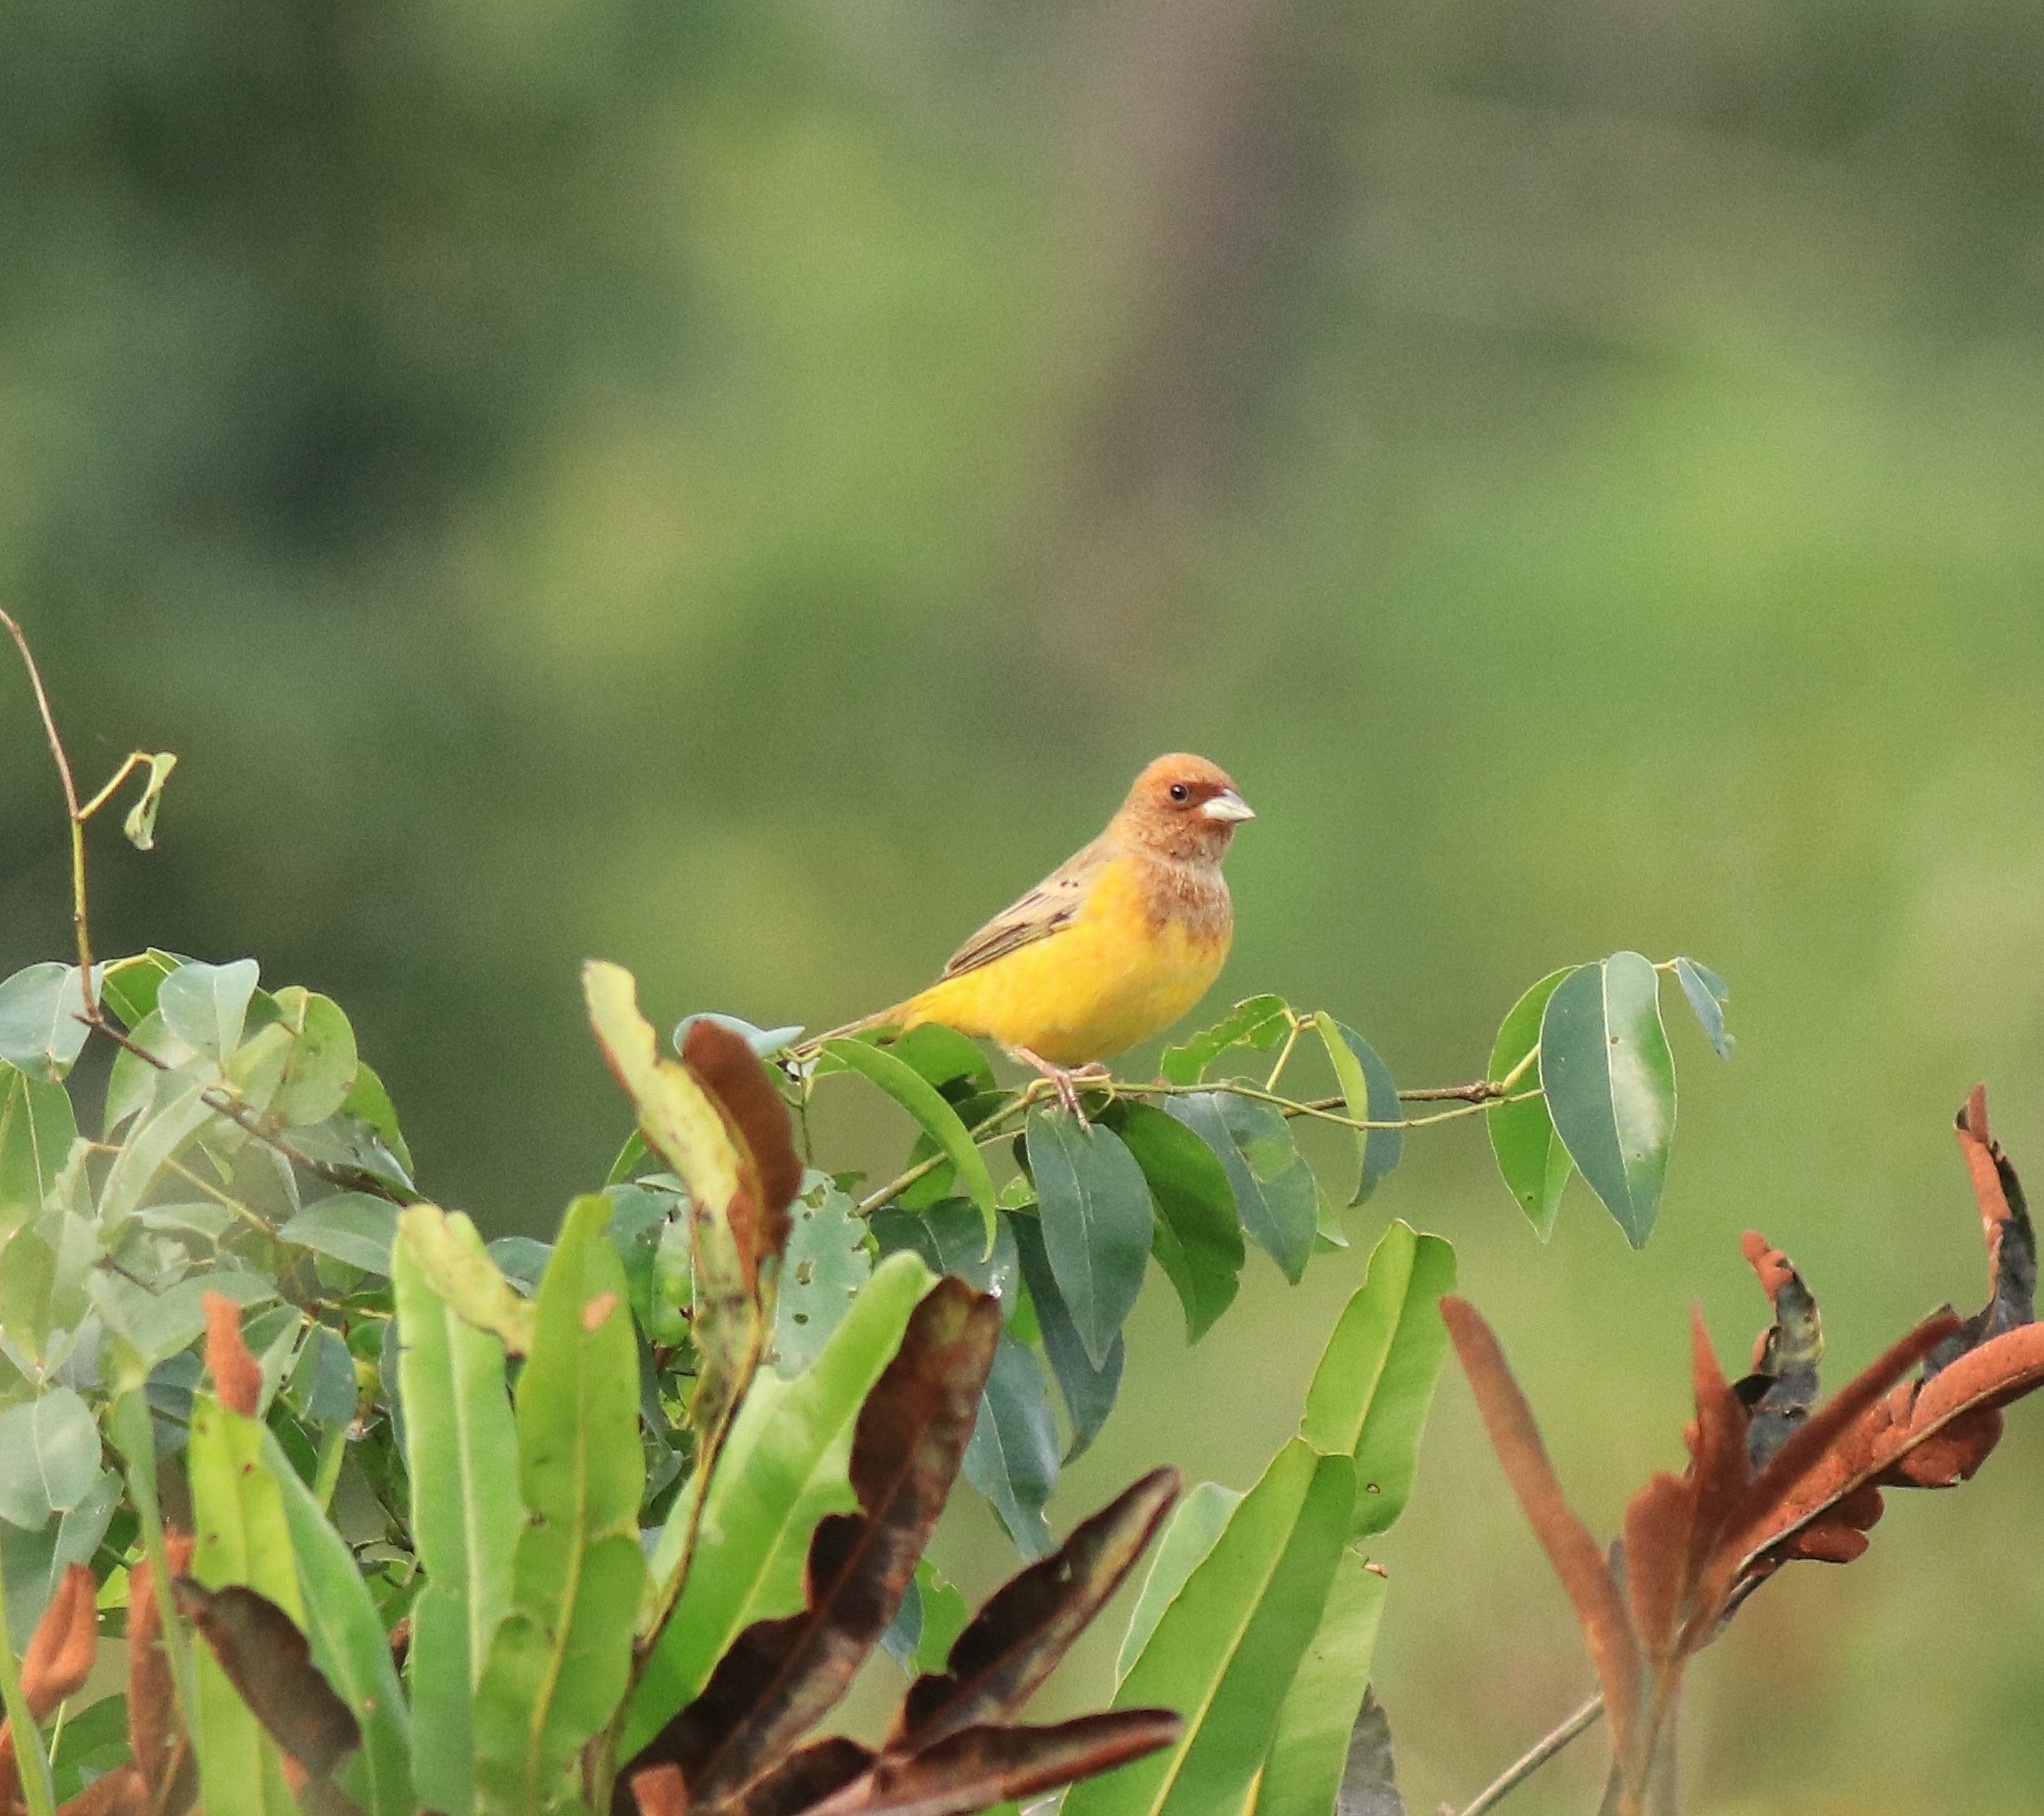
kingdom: Animalia
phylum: Chordata
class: Aves
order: Passeriformes
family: Emberizidae
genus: Emberiza
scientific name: Emberiza bruniceps
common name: Red-headed bunting
